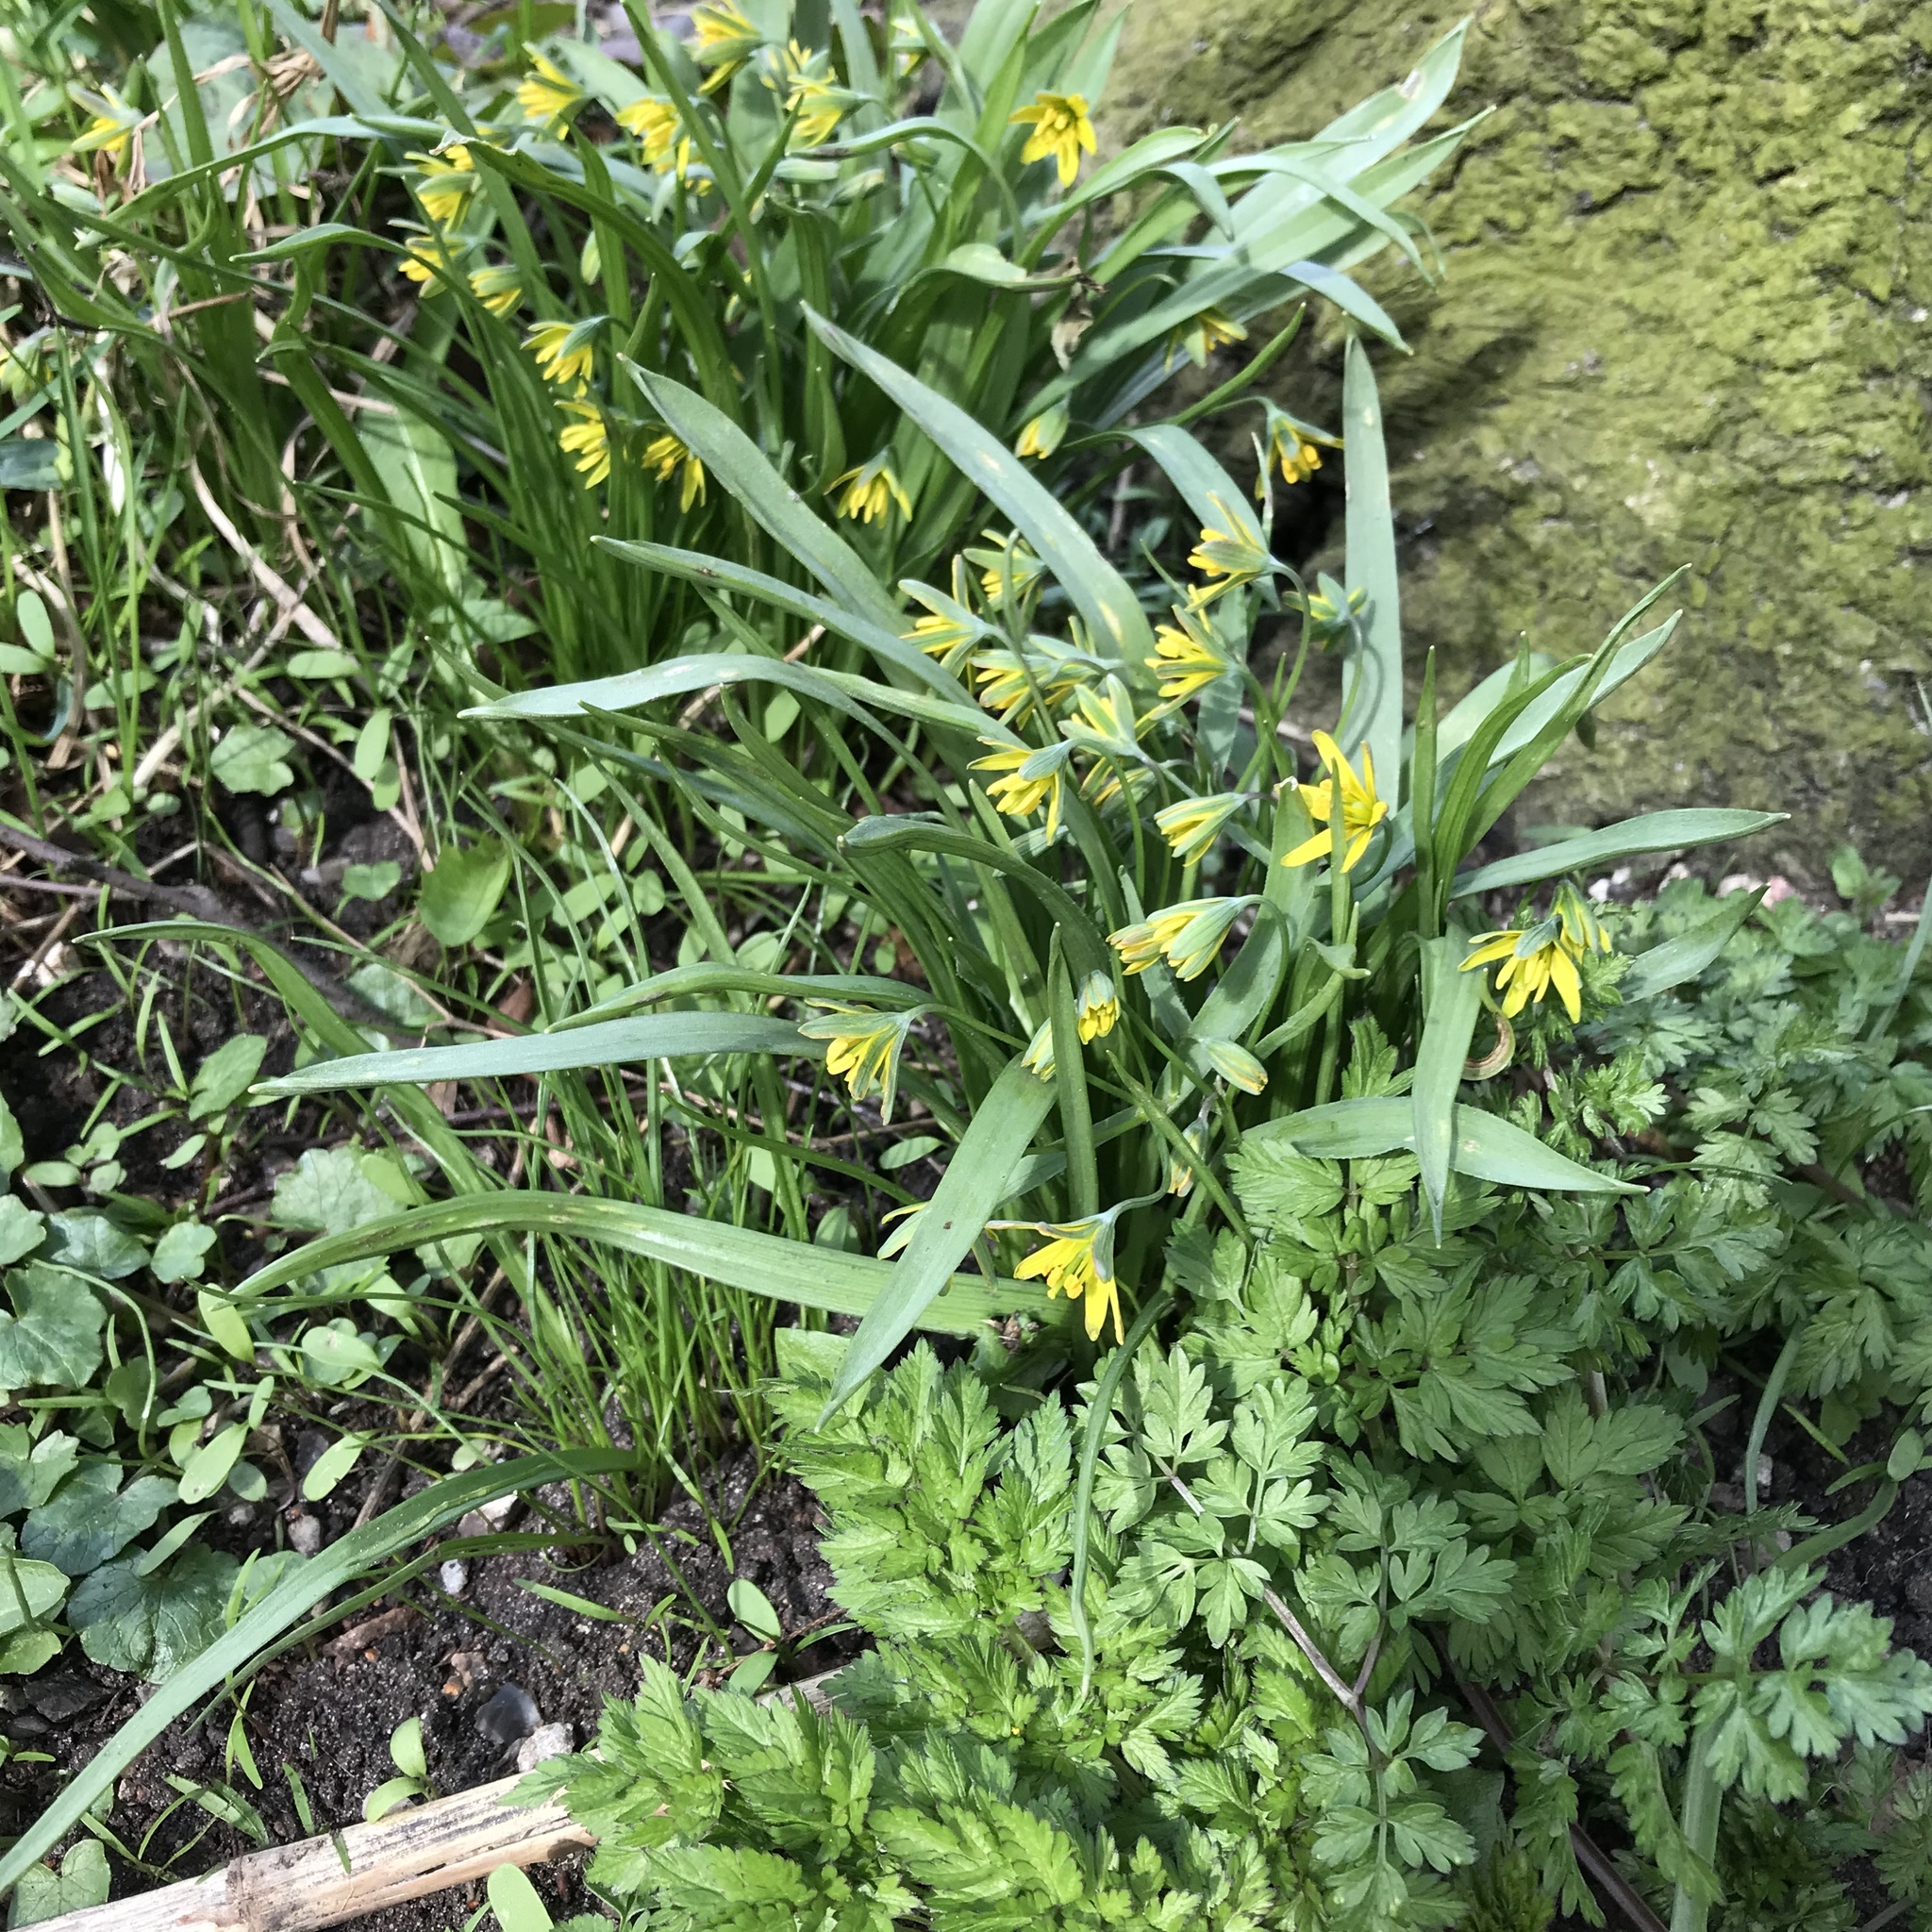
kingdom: Plantae
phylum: Tracheophyta
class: Liliopsida
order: Liliales
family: Liliaceae
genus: Gagea
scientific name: Gagea lutea
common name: Yellow star-of-bethlehem
